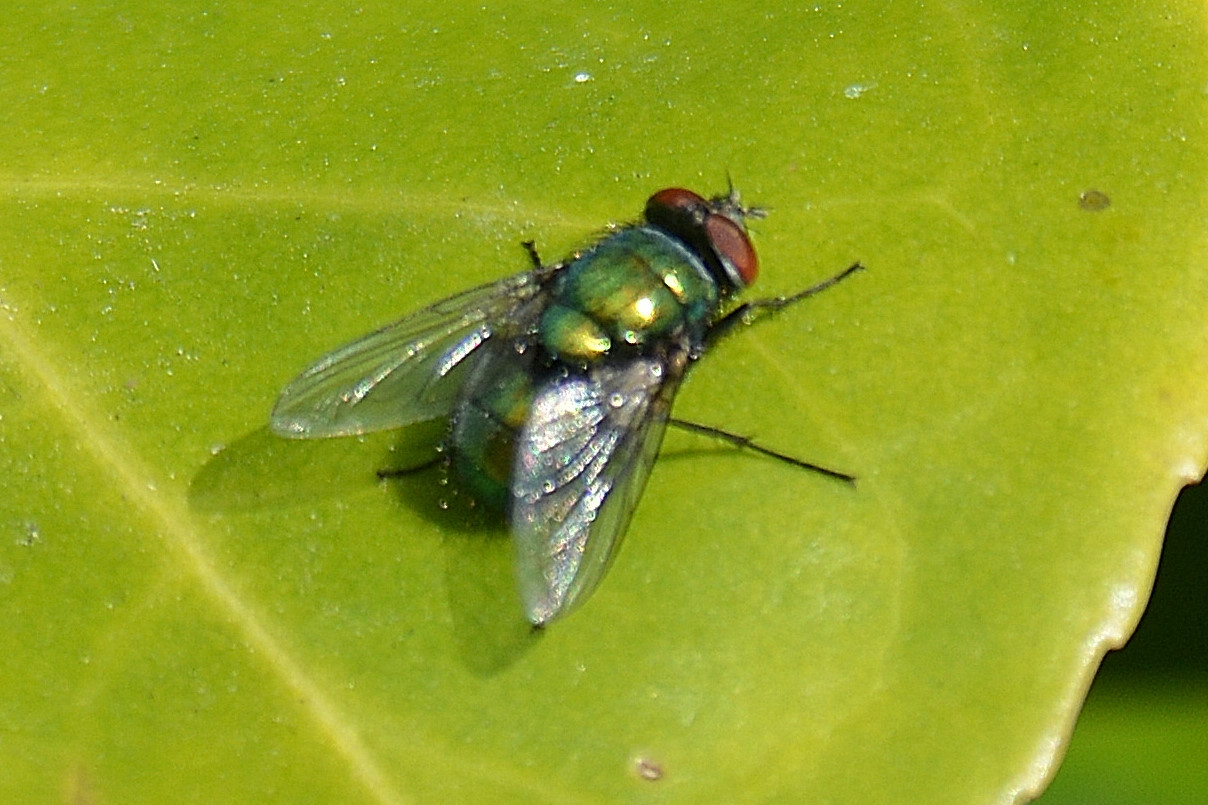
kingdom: Animalia
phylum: Arthropoda
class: Insecta
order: Diptera
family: Calliphoridae
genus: Lucilia
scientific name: Lucilia
